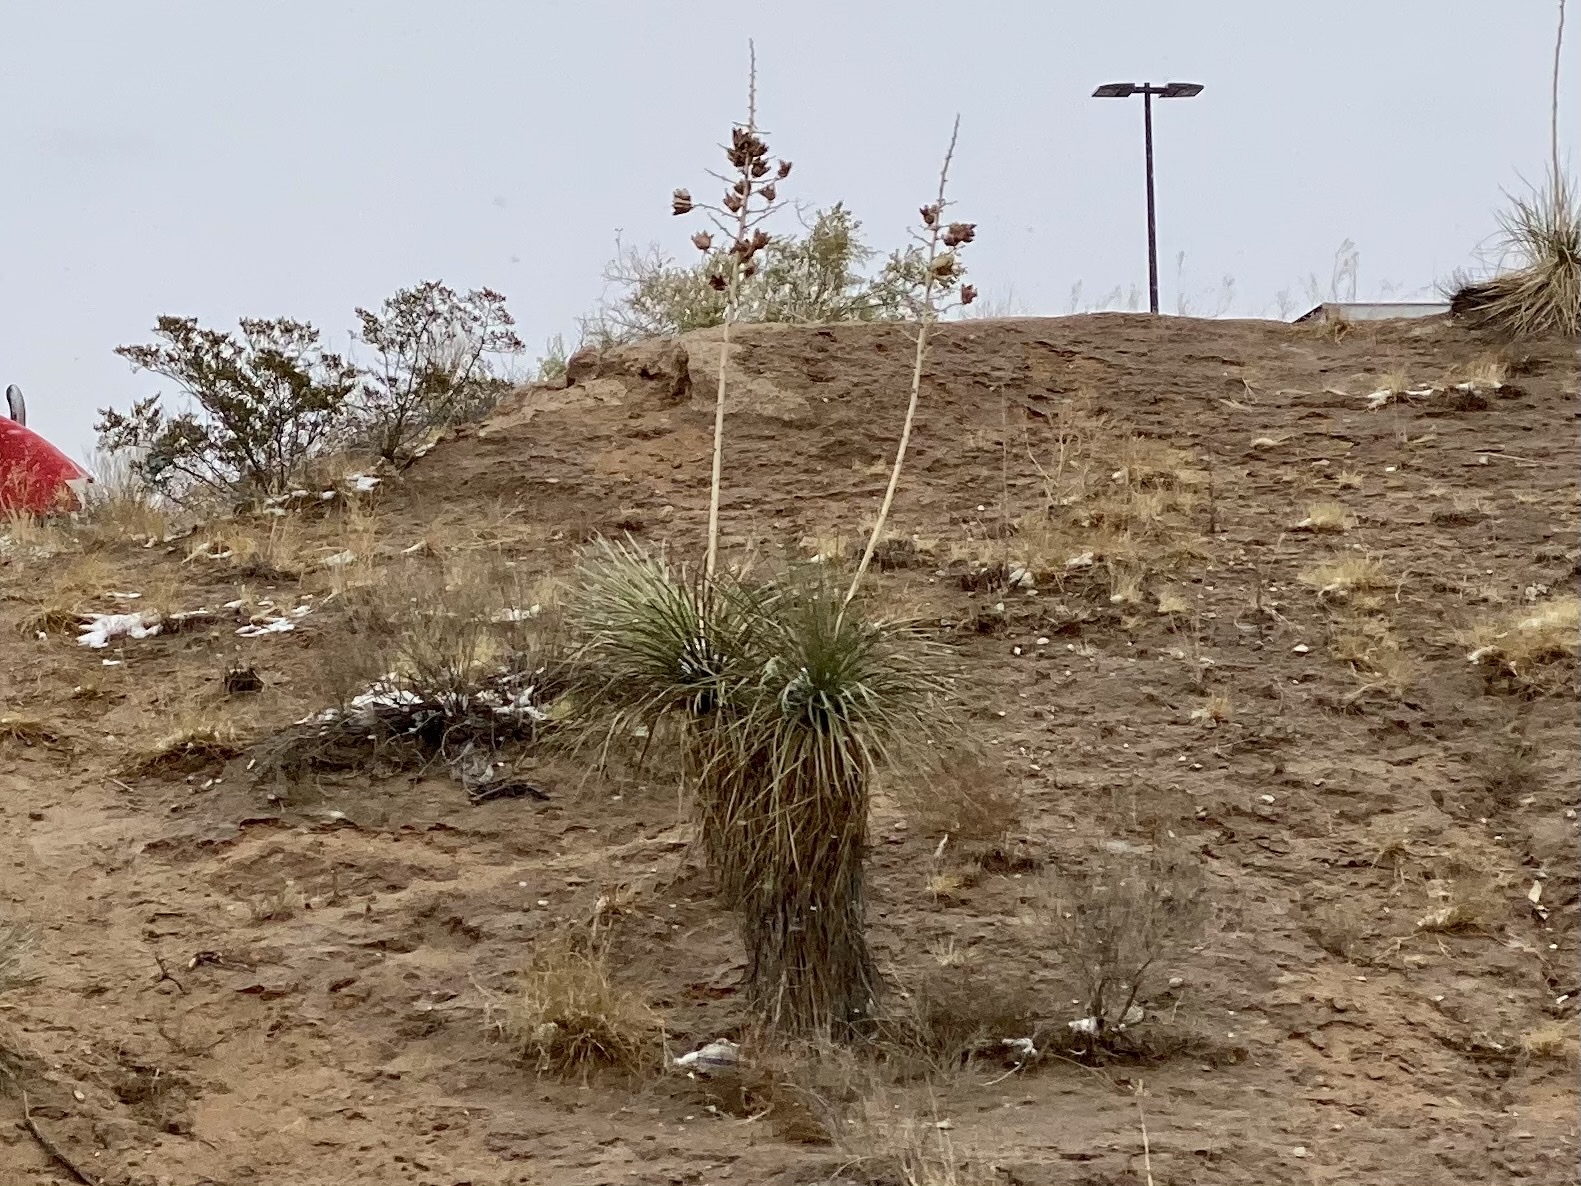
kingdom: Plantae
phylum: Tracheophyta
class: Liliopsida
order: Asparagales
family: Asparagaceae
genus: Yucca
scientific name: Yucca elata
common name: Palmella
